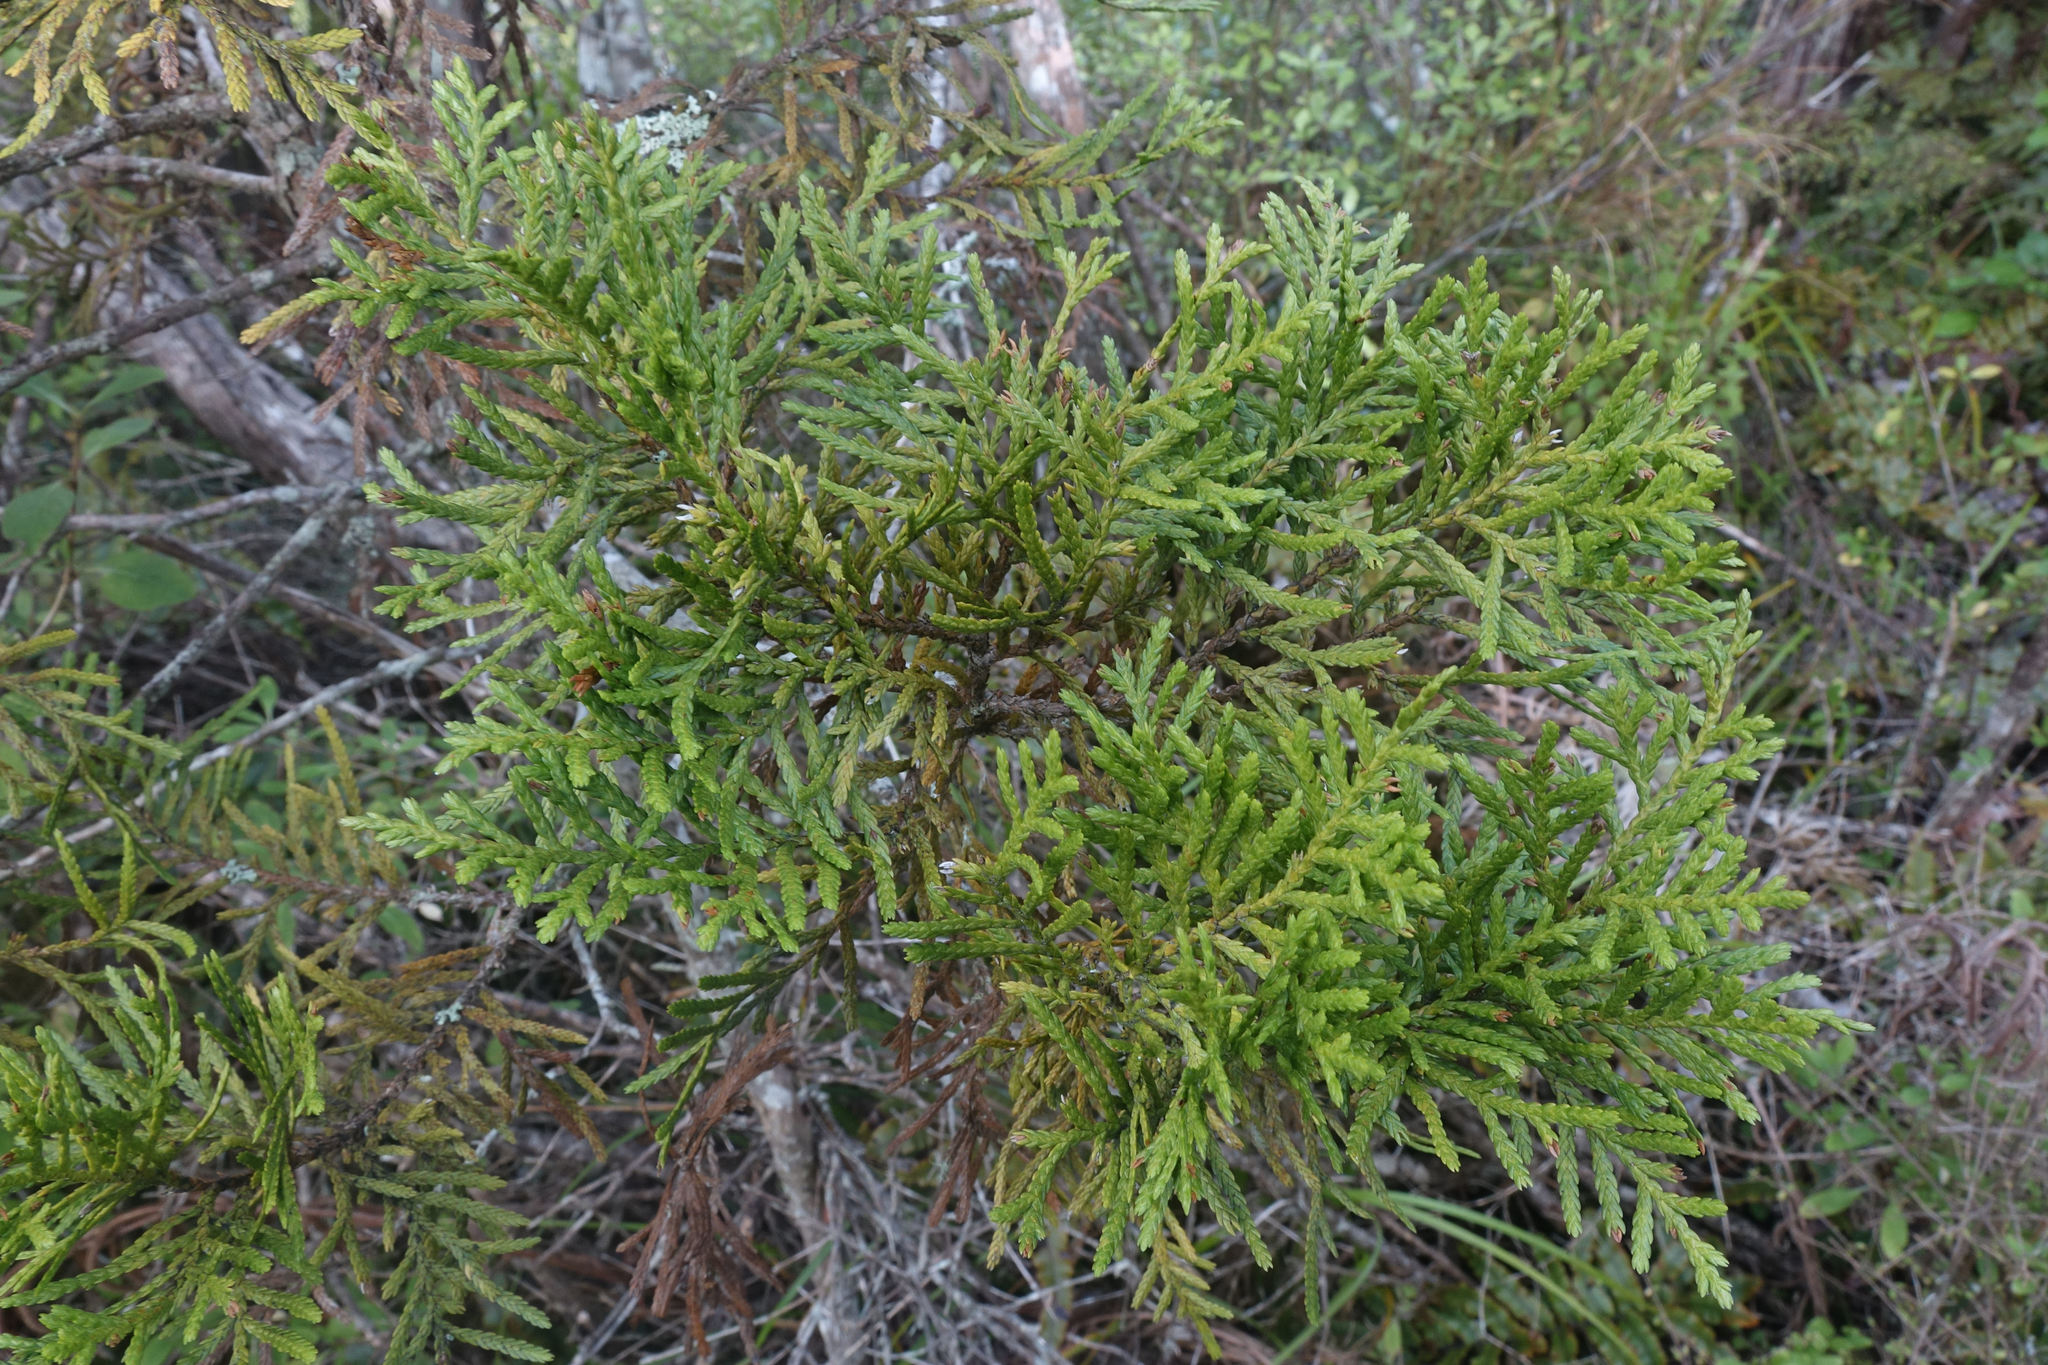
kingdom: Plantae
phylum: Tracheophyta
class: Pinopsida
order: Pinales
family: Cupressaceae
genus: Libocedrus
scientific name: Libocedrus bidwillii
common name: Cedar
